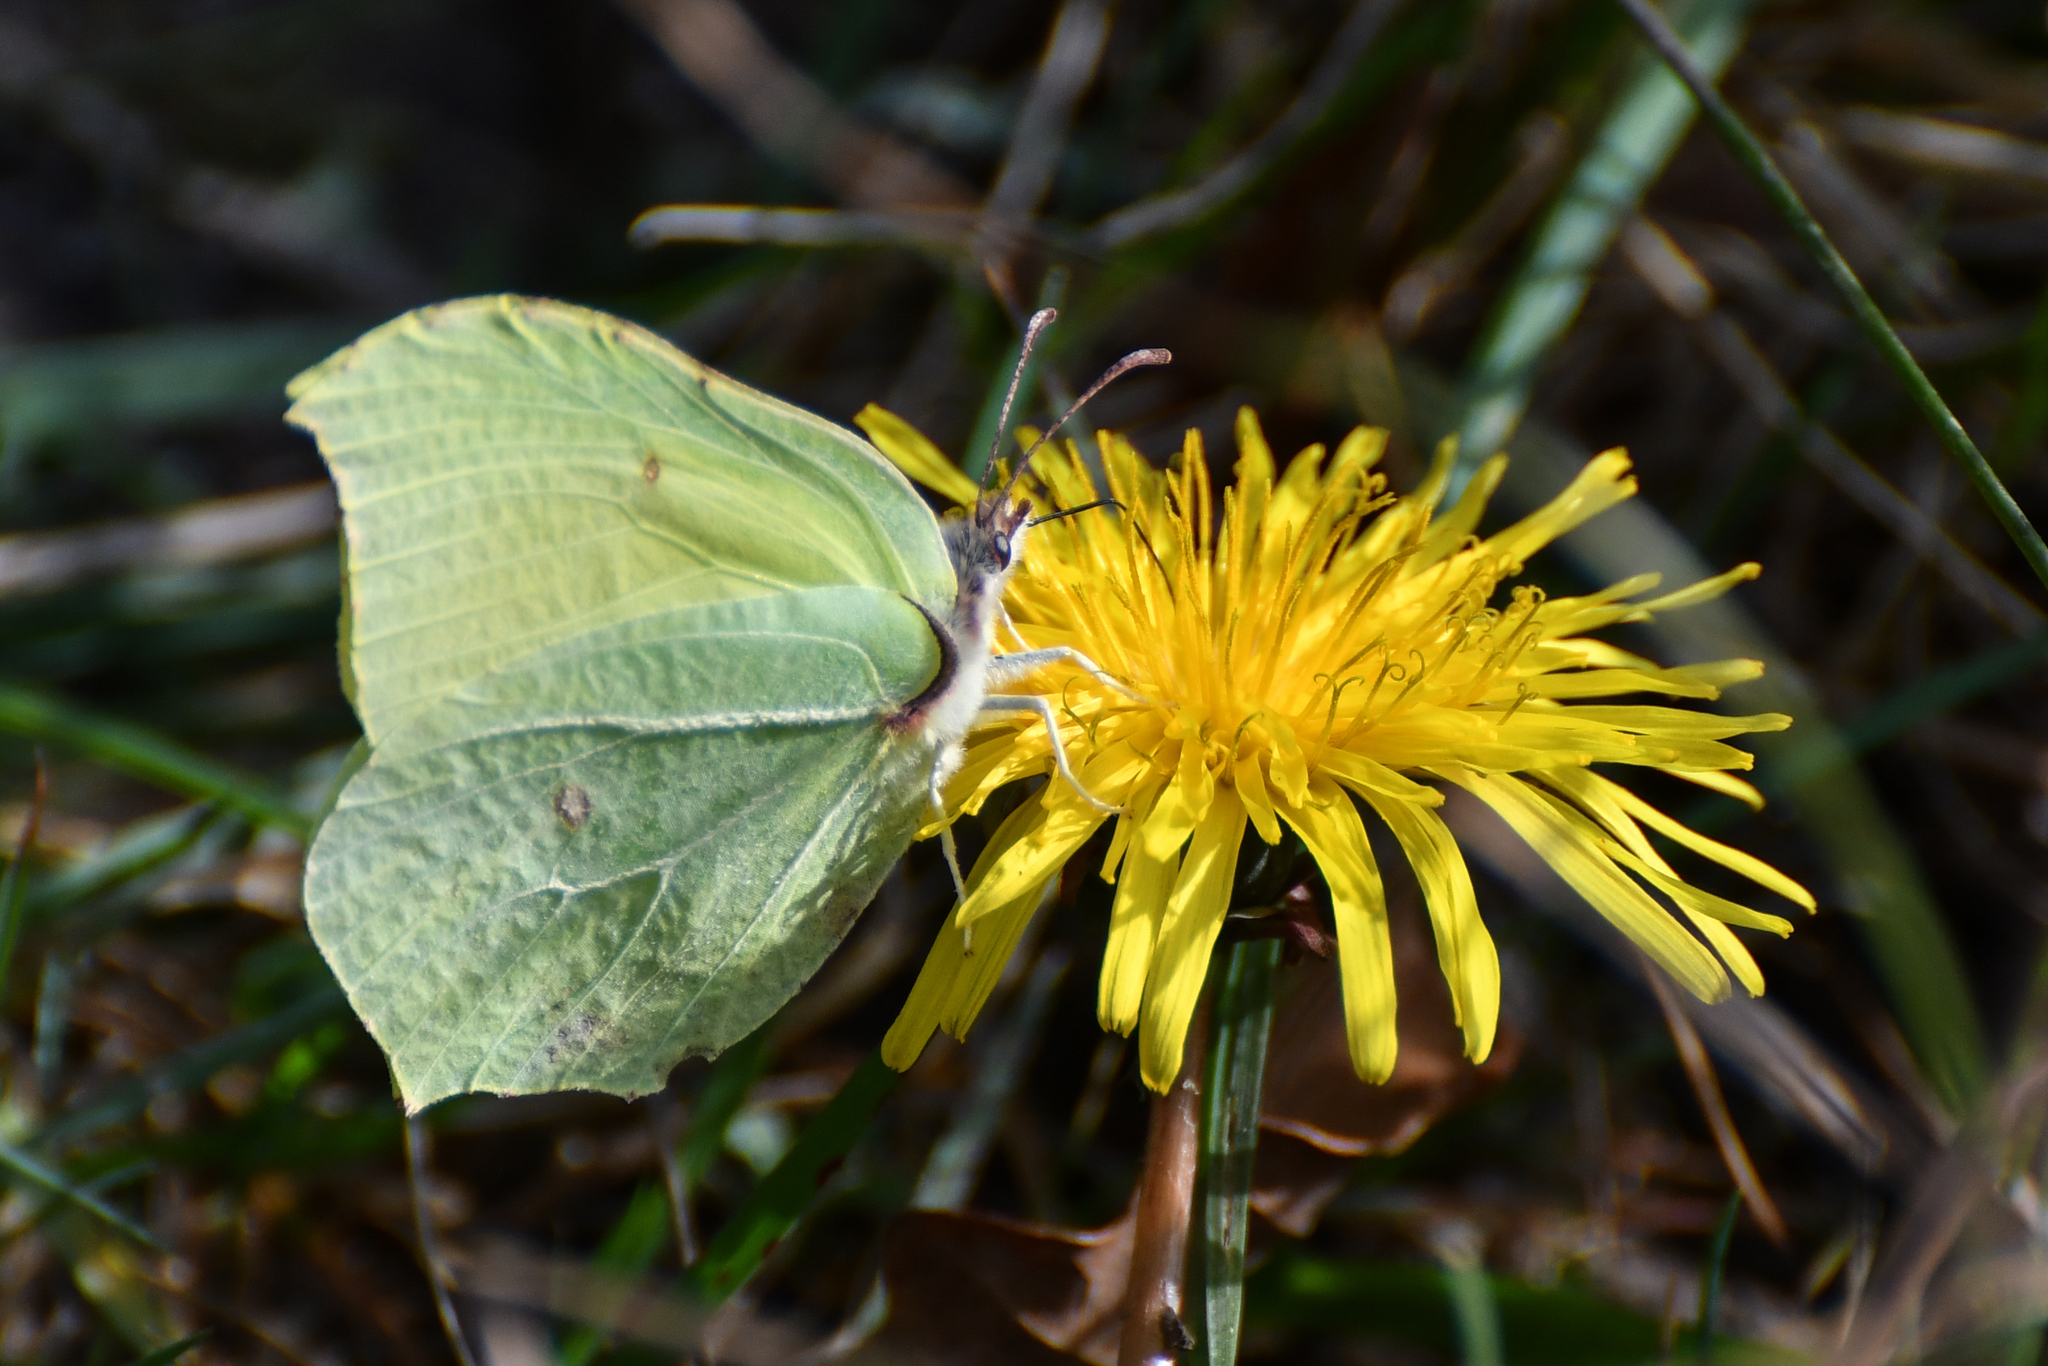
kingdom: Animalia
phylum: Arthropoda
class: Insecta
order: Lepidoptera
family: Pieridae
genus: Gonepteryx
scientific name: Gonepteryx rhamni
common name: Brimstone
